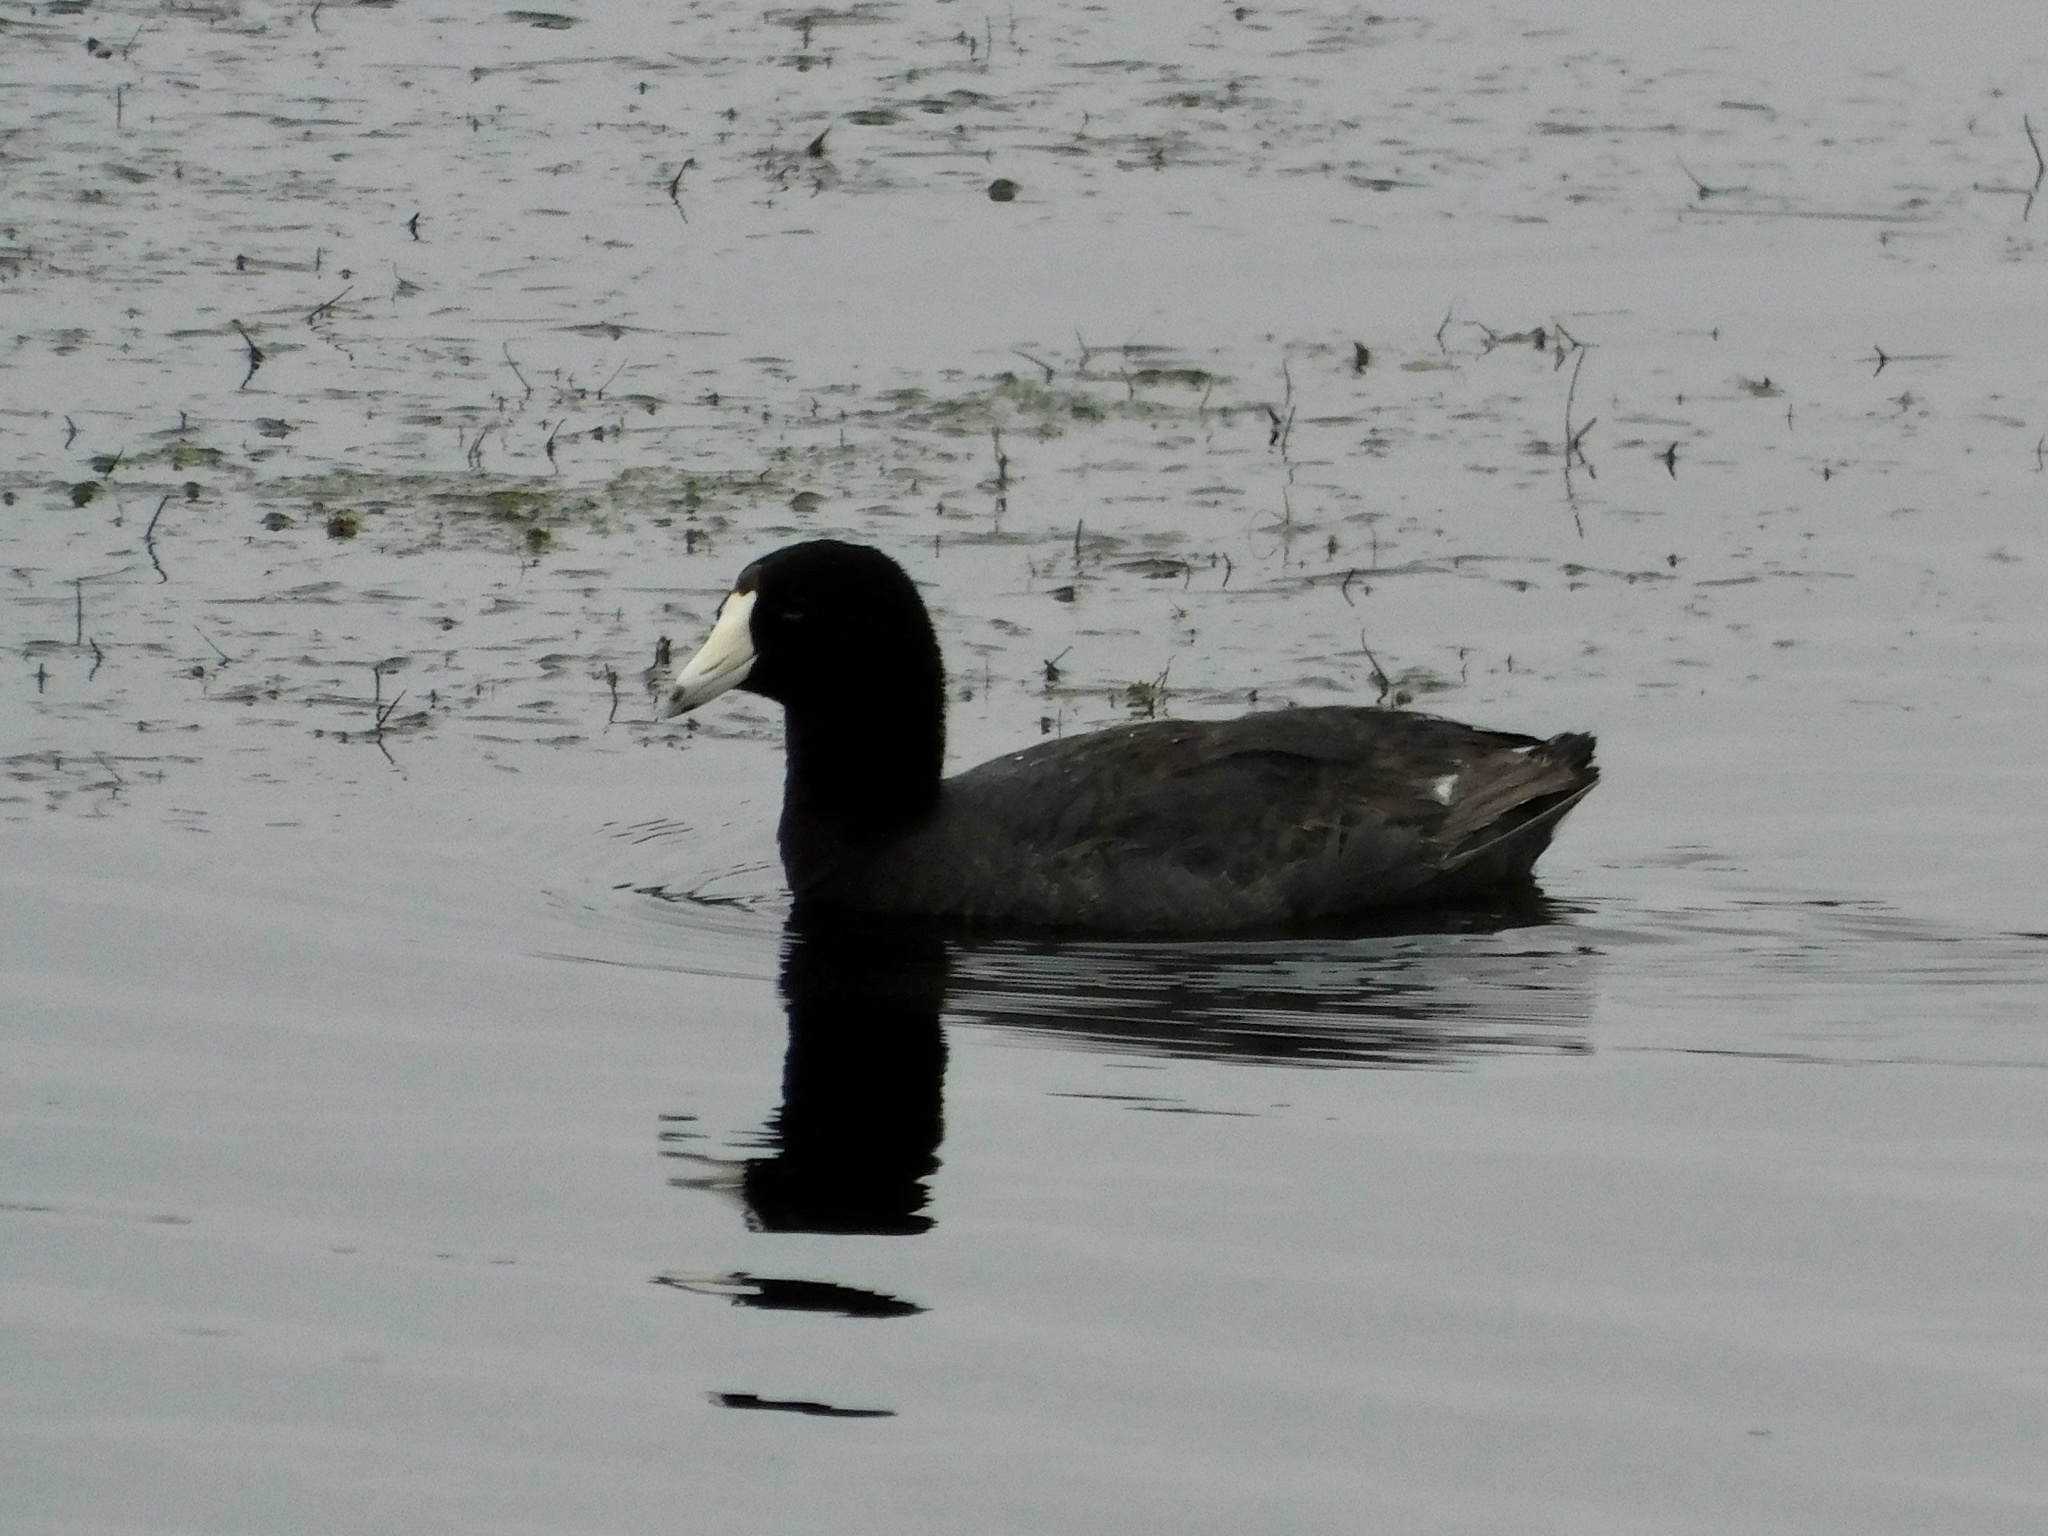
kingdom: Animalia
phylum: Chordata
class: Aves
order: Gruiformes
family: Rallidae
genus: Fulica
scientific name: Fulica americana
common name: American coot
